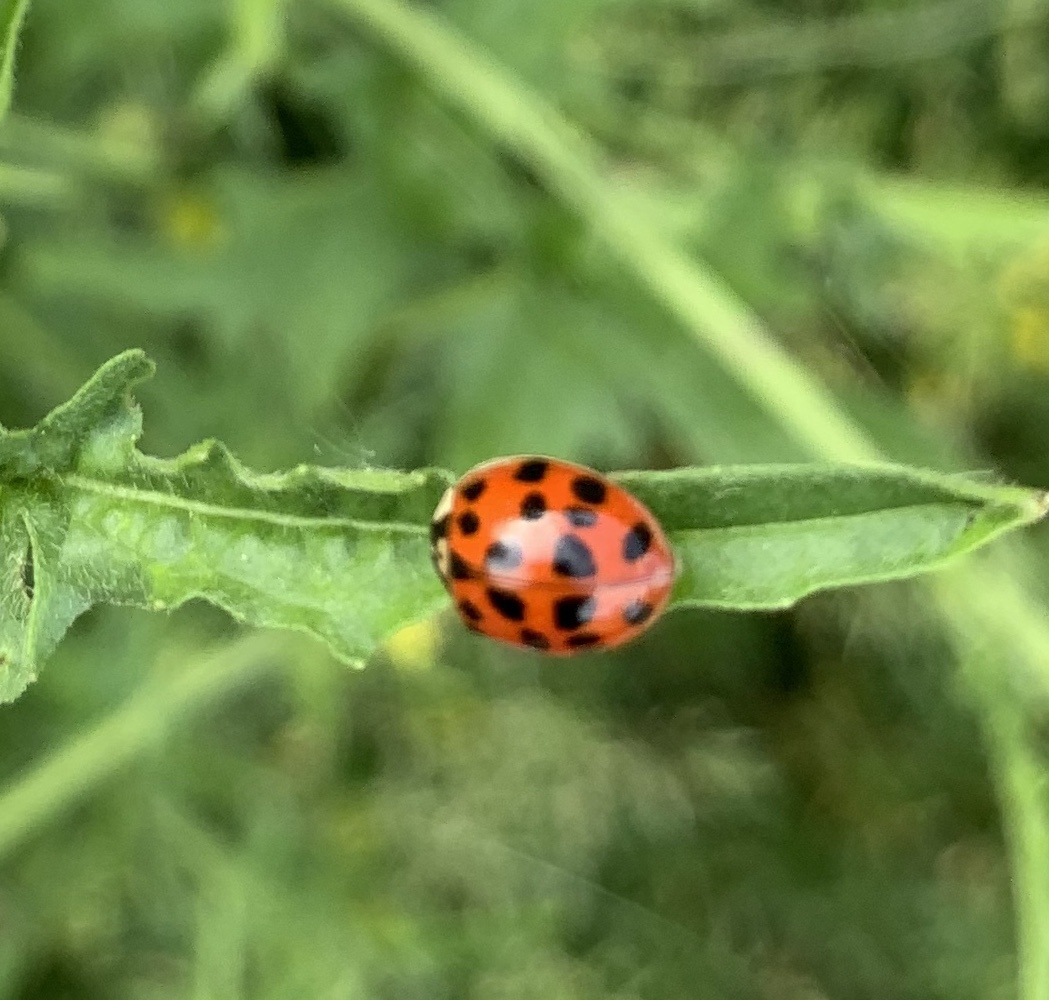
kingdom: Animalia
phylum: Arthropoda
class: Insecta
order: Coleoptera
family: Coccinellidae
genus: Harmonia
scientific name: Harmonia axyridis
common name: Harlequin ladybird
